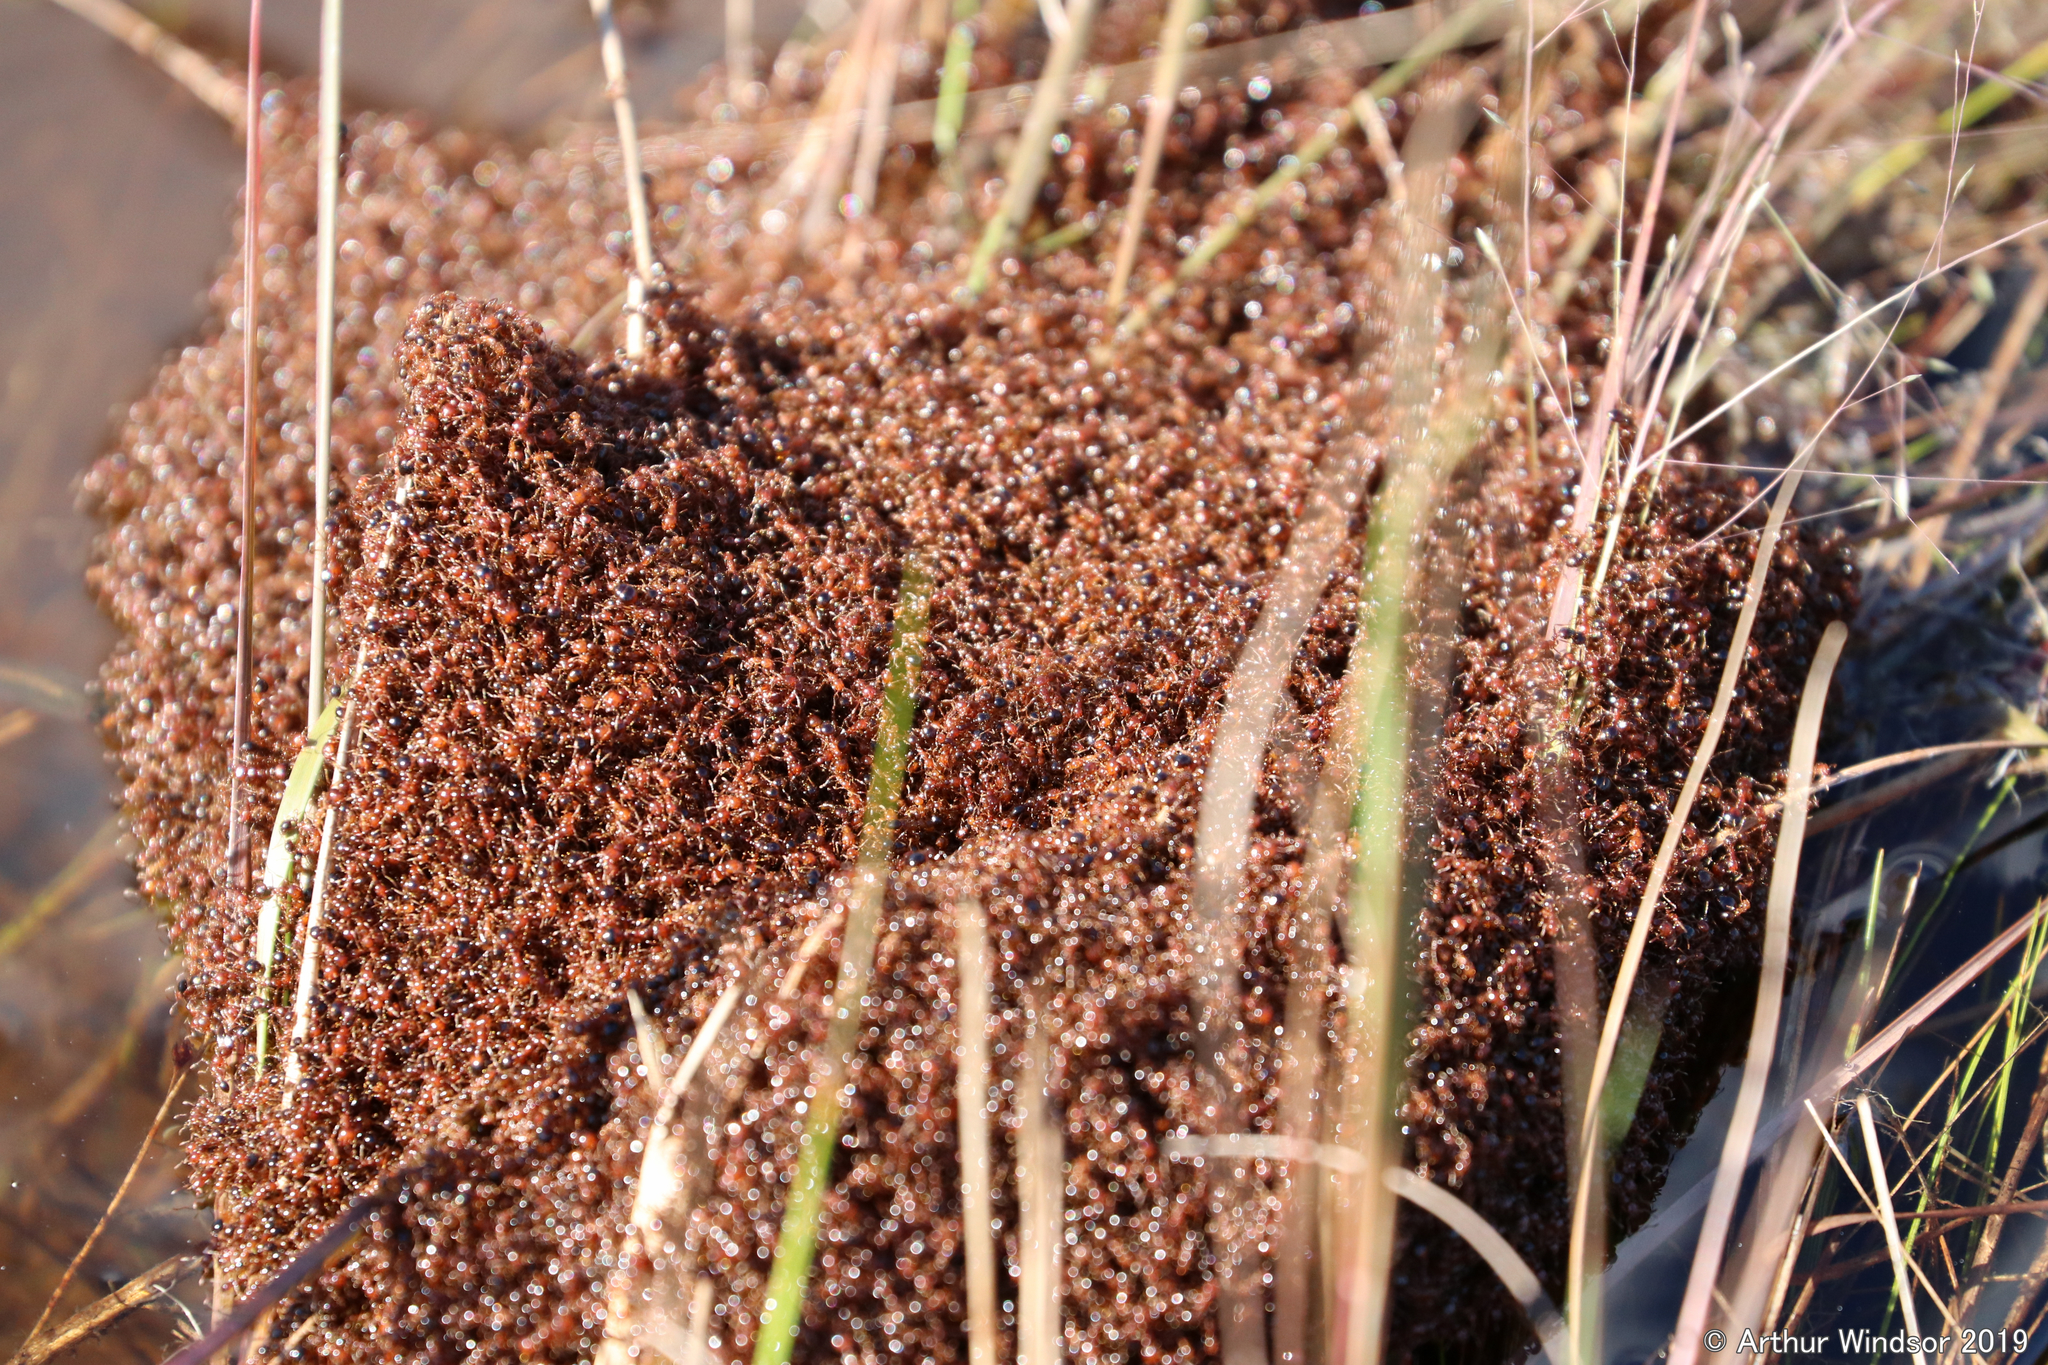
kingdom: Animalia
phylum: Arthropoda
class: Insecta
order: Hymenoptera
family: Formicidae
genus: Solenopsis
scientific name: Solenopsis invicta
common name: Red imported fire ant
